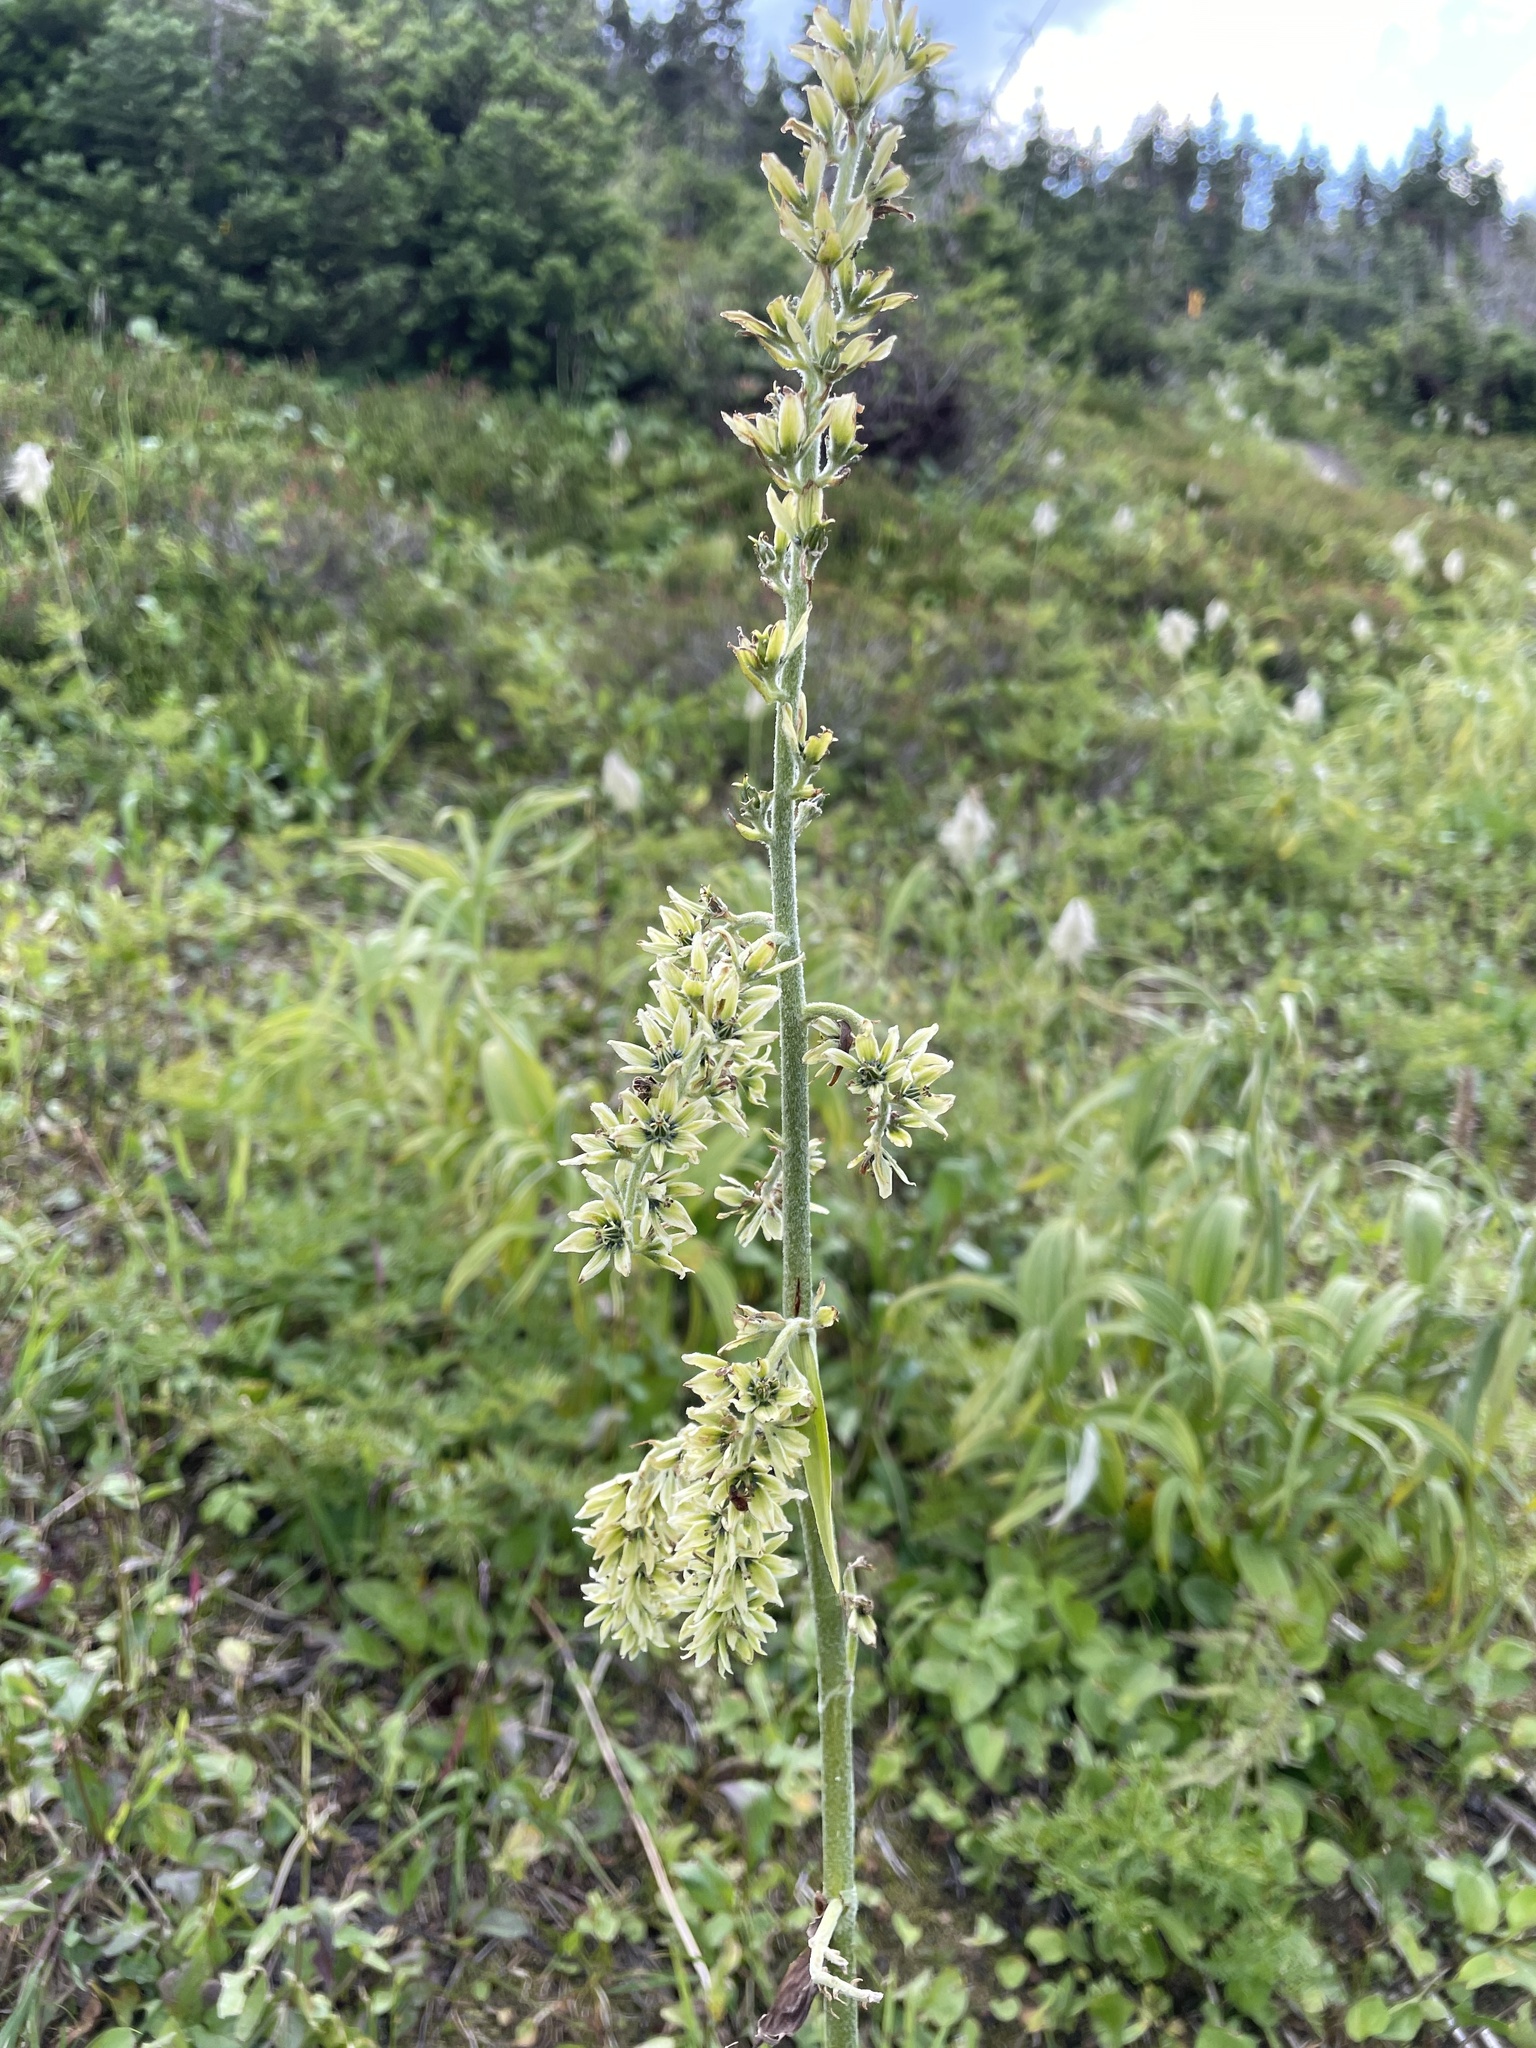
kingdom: Plantae
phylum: Tracheophyta
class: Liliopsida
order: Liliales
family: Melanthiaceae
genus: Veratrum
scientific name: Veratrum viride
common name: American false hellebore
